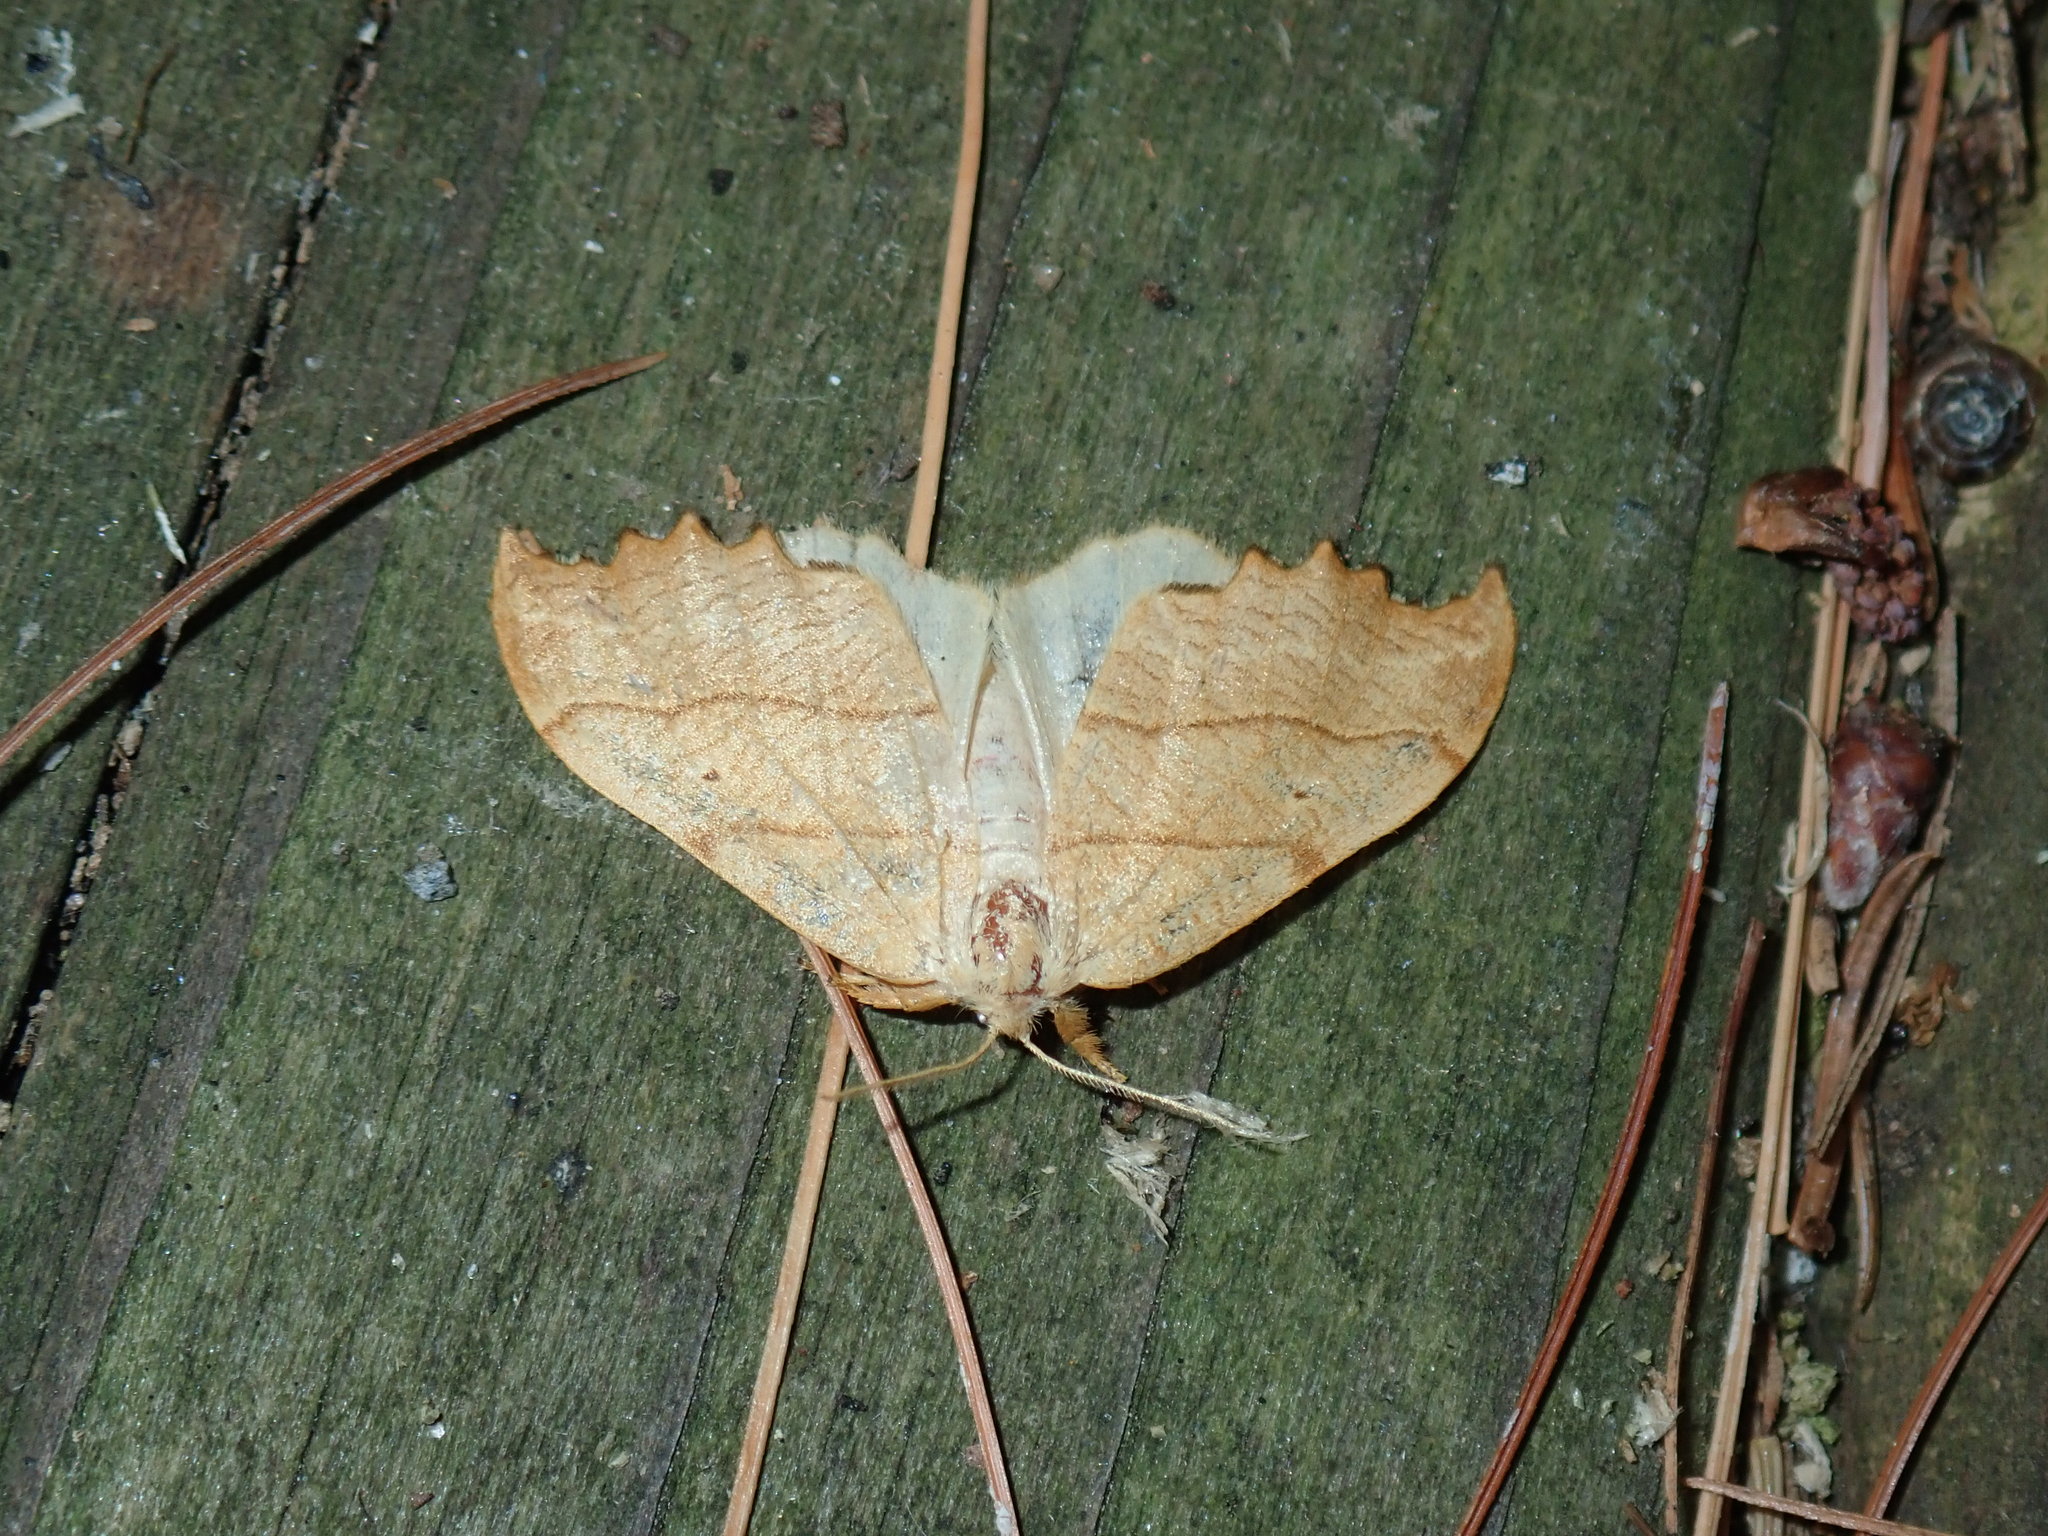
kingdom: Animalia
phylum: Arthropoda
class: Insecta
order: Lepidoptera
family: Drepanidae
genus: Falcaria
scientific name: Falcaria bilineata
